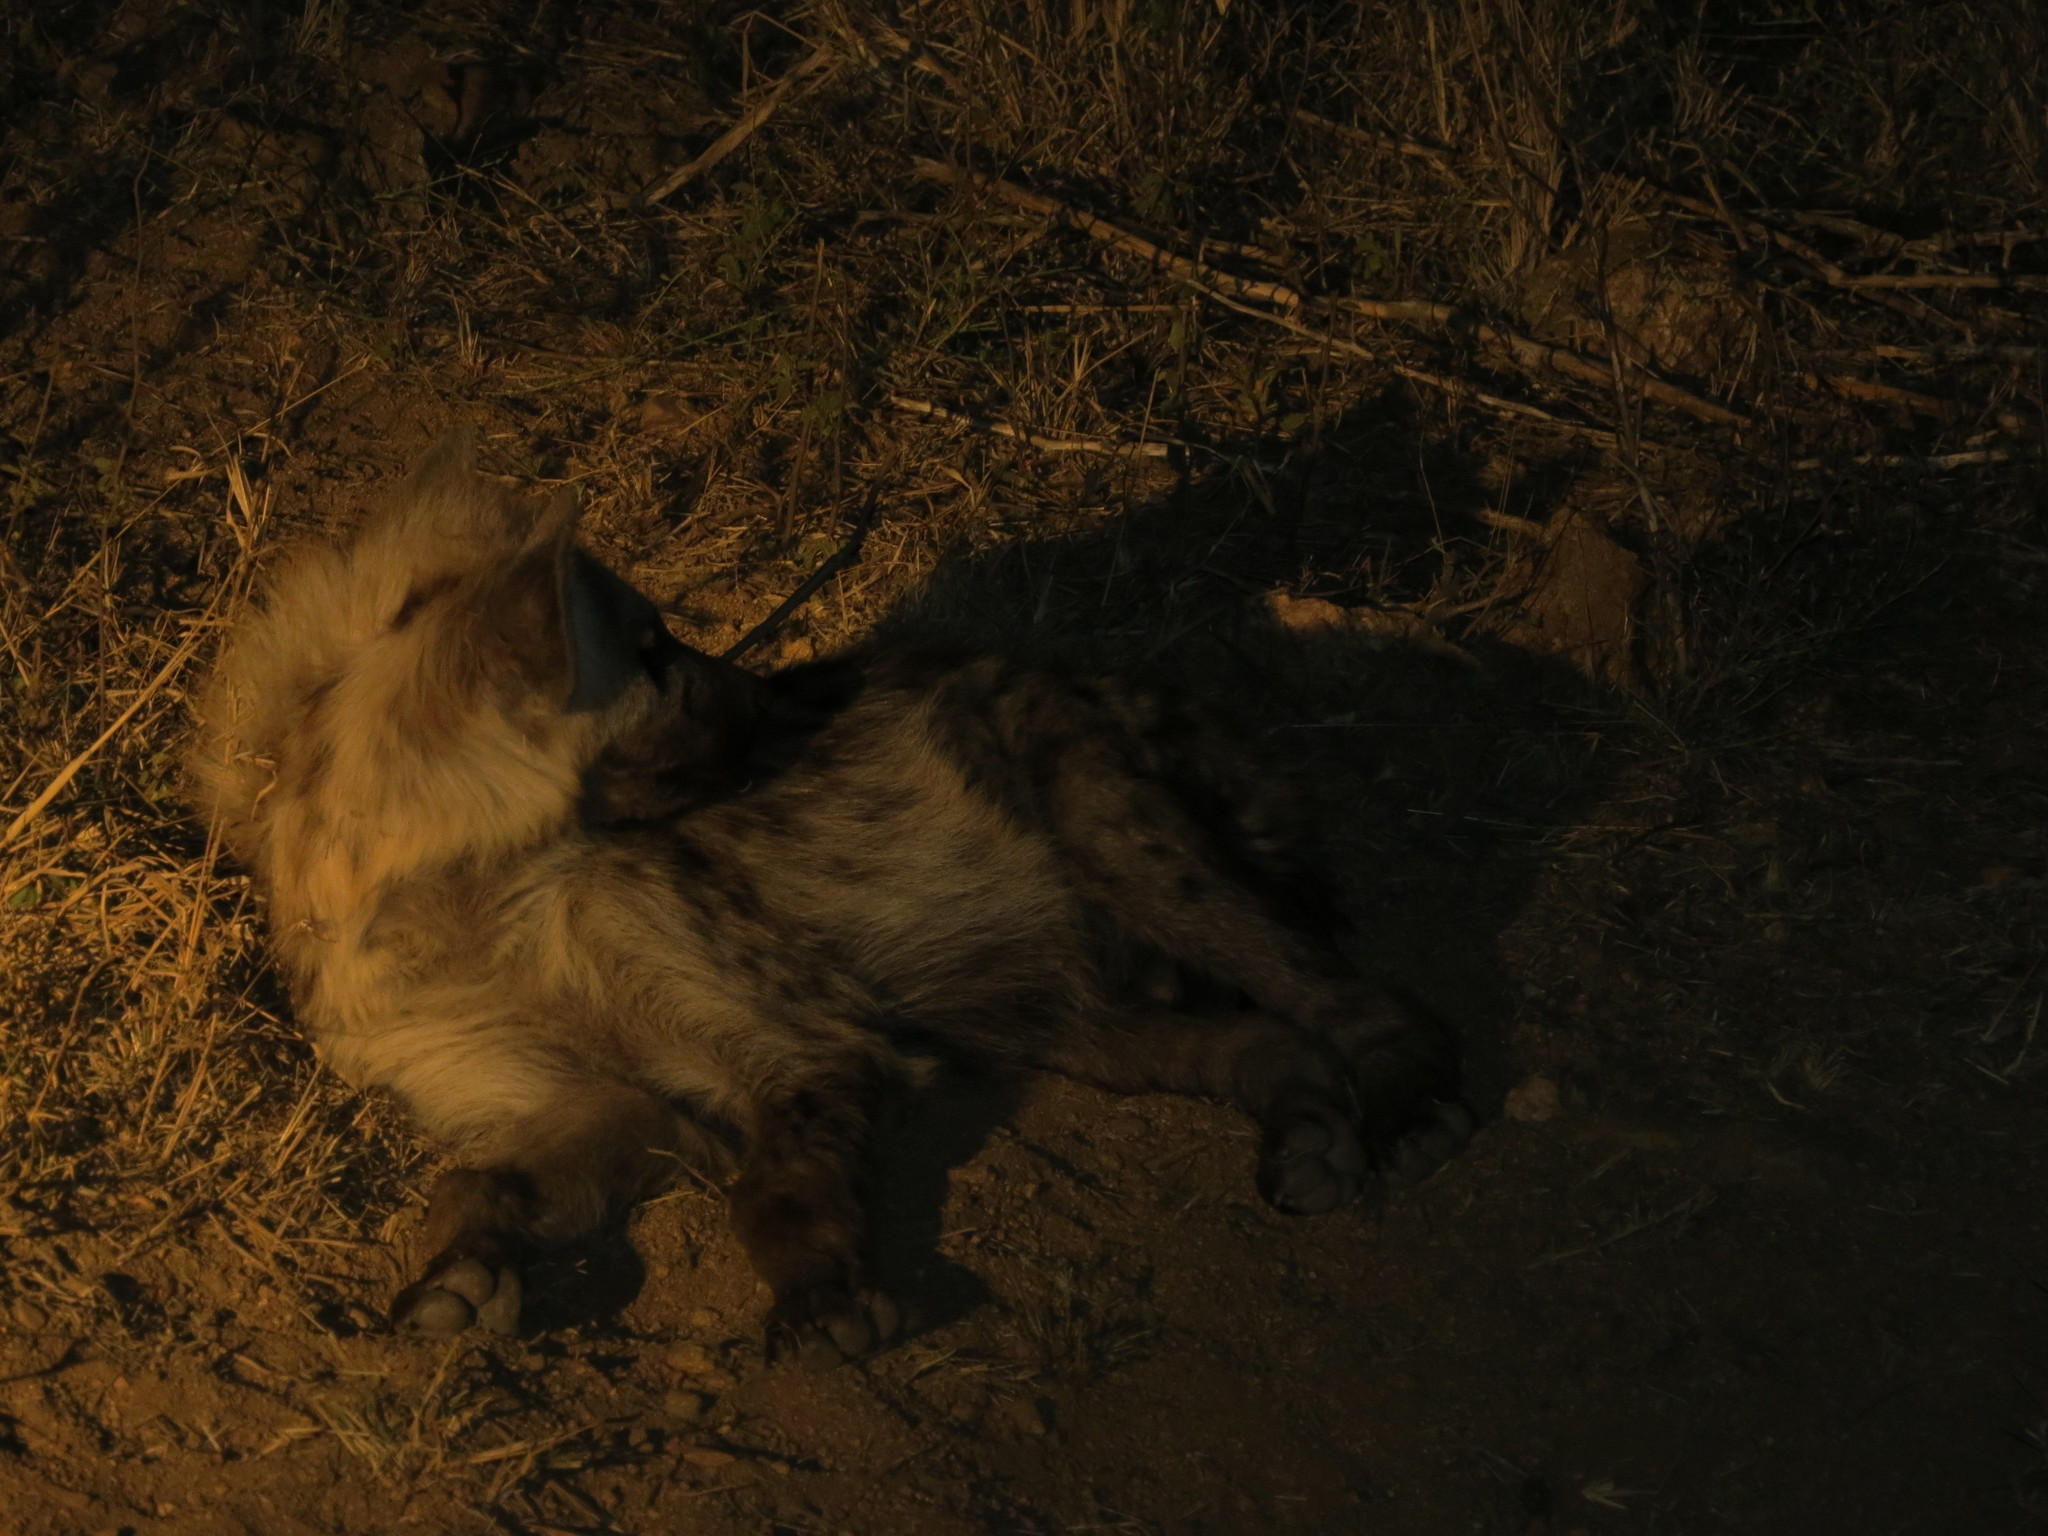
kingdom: Animalia
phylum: Chordata
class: Mammalia
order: Carnivora
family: Hyaenidae
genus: Crocuta
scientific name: Crocuta crocuta
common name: Spotted hyaena
